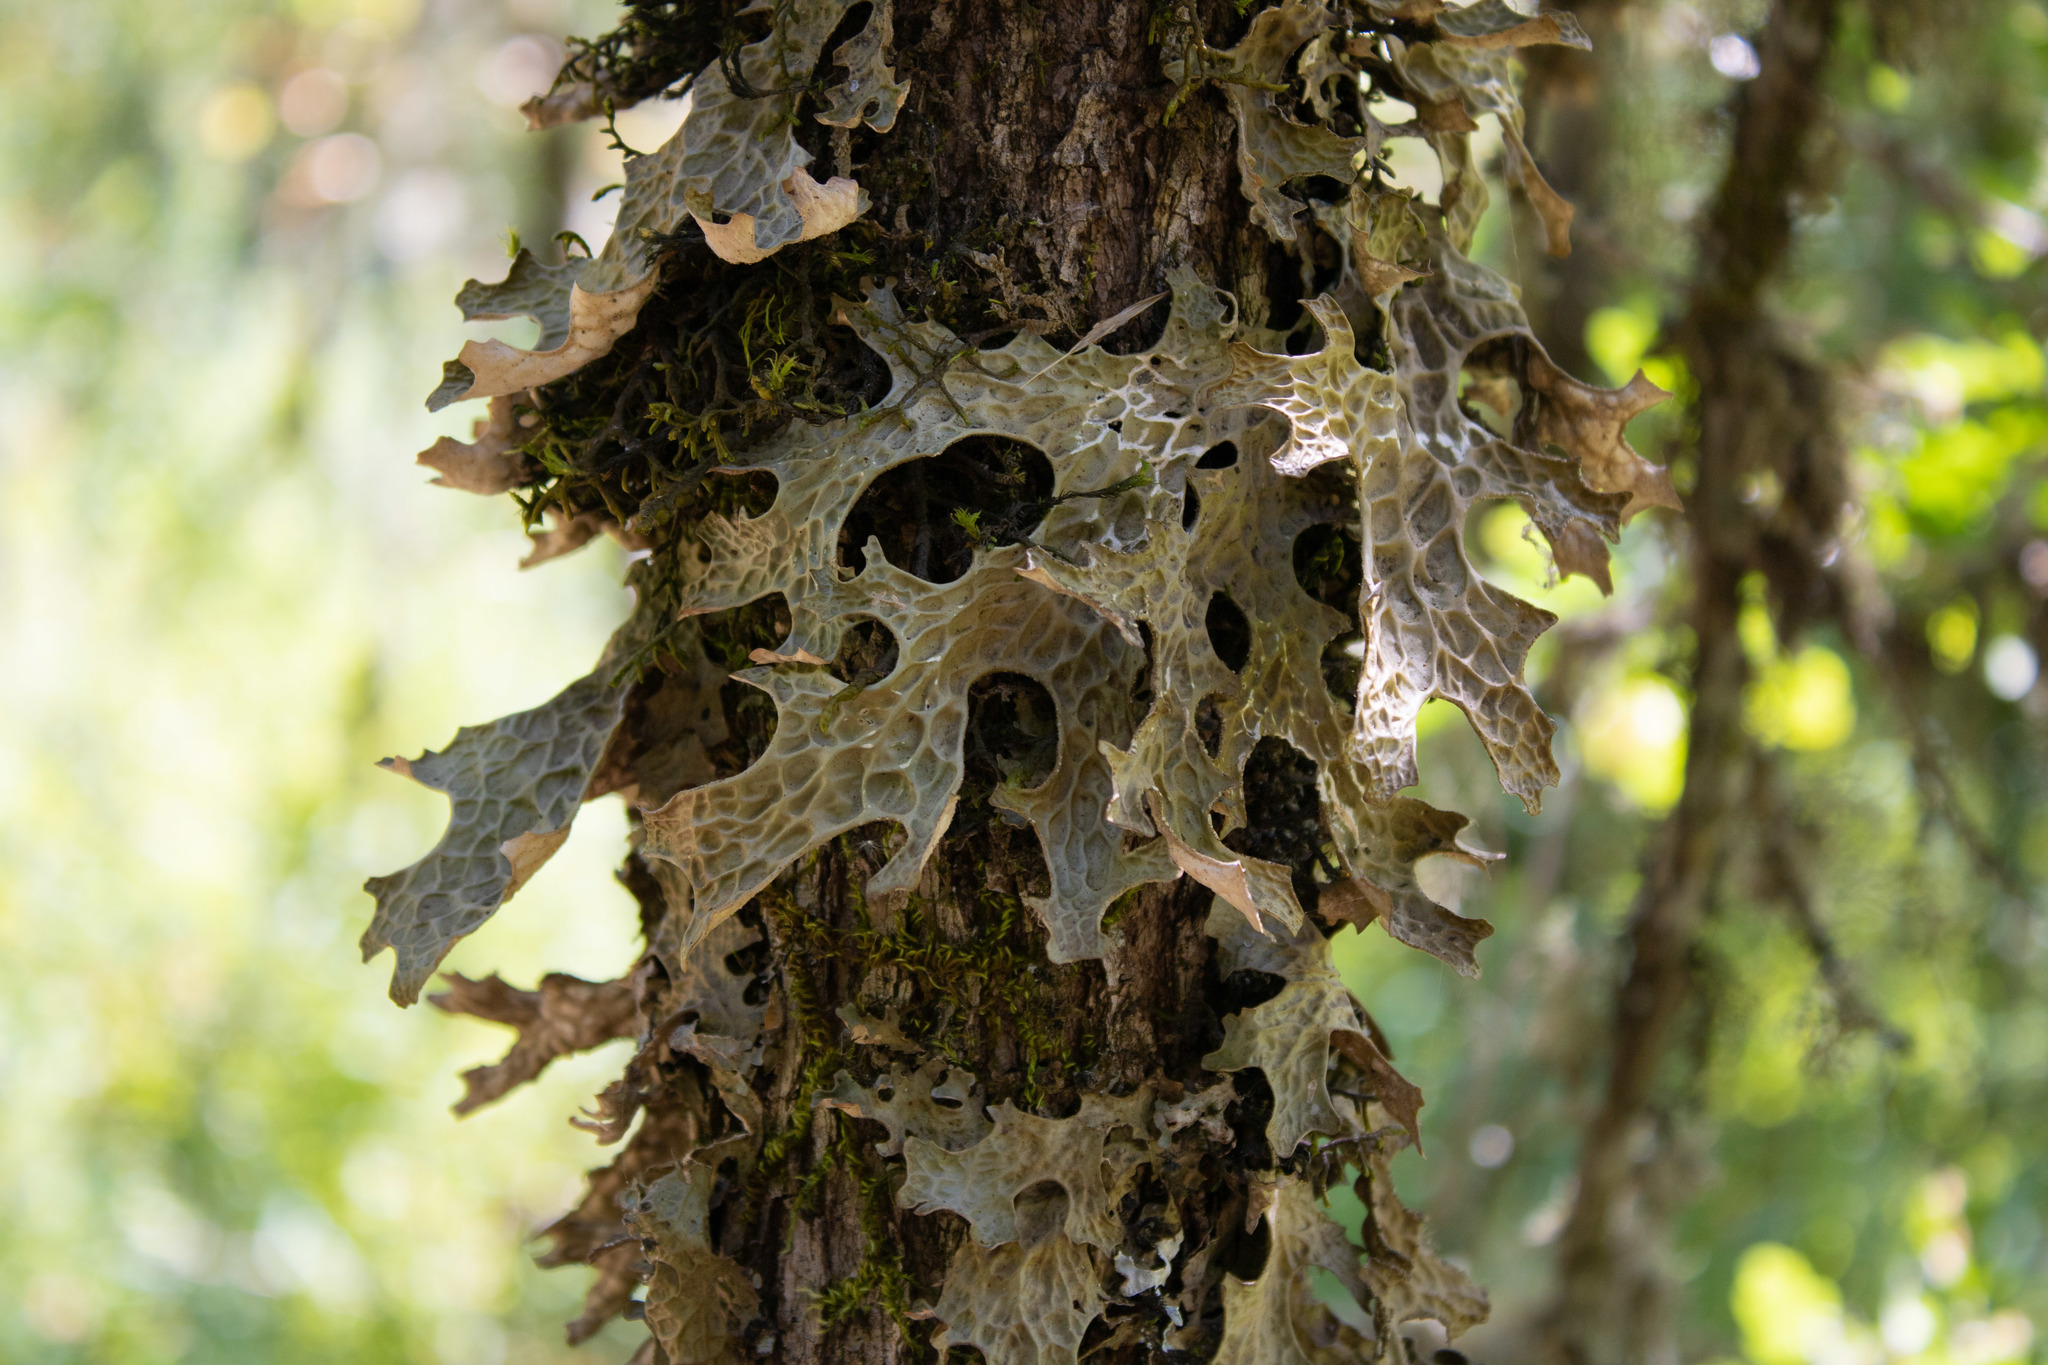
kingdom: Fungi
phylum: Ascomycota
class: Lecanoromycetes
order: Peltigerales
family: Lobariaceae
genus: Lobaria
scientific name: Lobaria pulmonaria
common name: Lungwort
